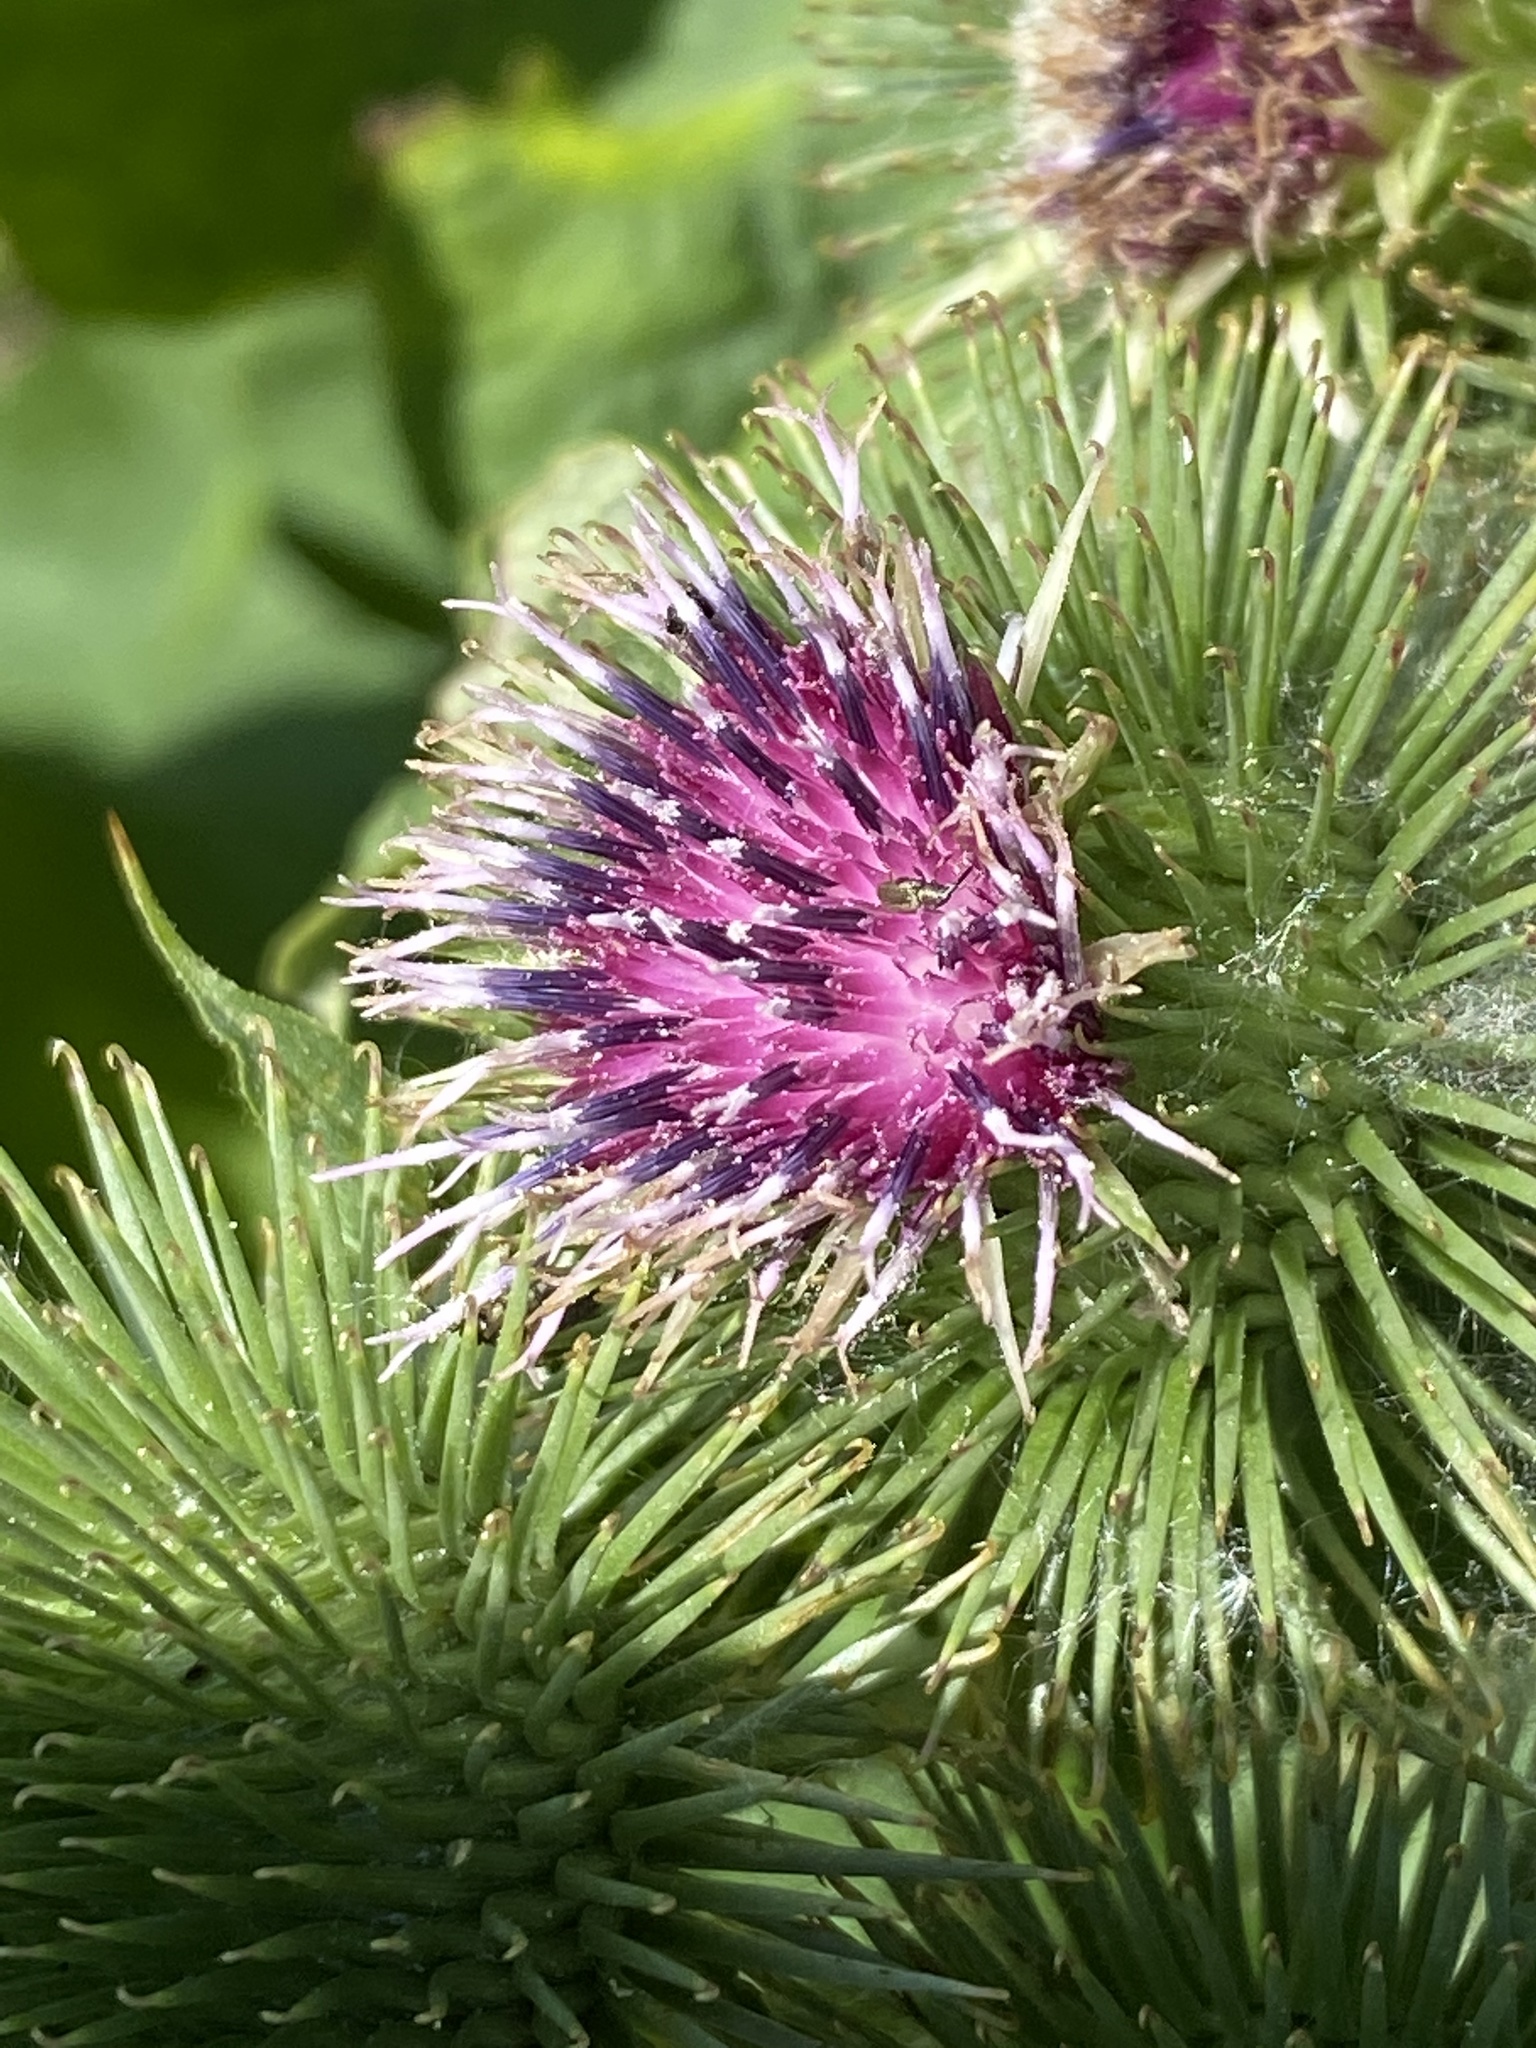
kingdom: Plantae
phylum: Tracheophyta
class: Magnoliopsida
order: Asterales
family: Asteraceae
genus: Arctium
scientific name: Arctium lappa
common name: Greater burdock
